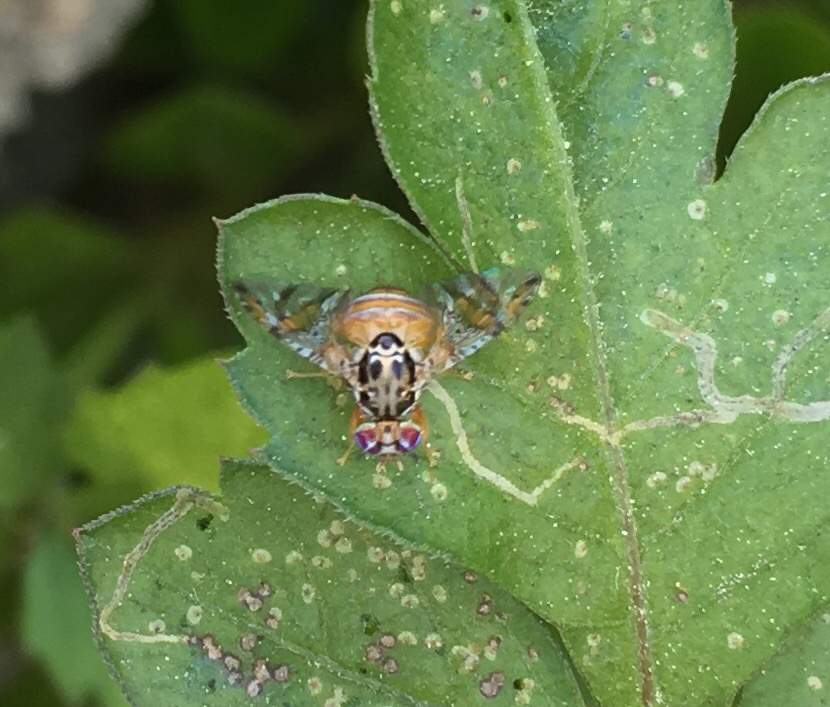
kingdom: Animalia
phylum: Arthropoda
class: Insecta
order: Diptera
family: Tephritidae
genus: Ceratitis
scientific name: Ceratitis capitata
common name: Mediterranean fruit fly
